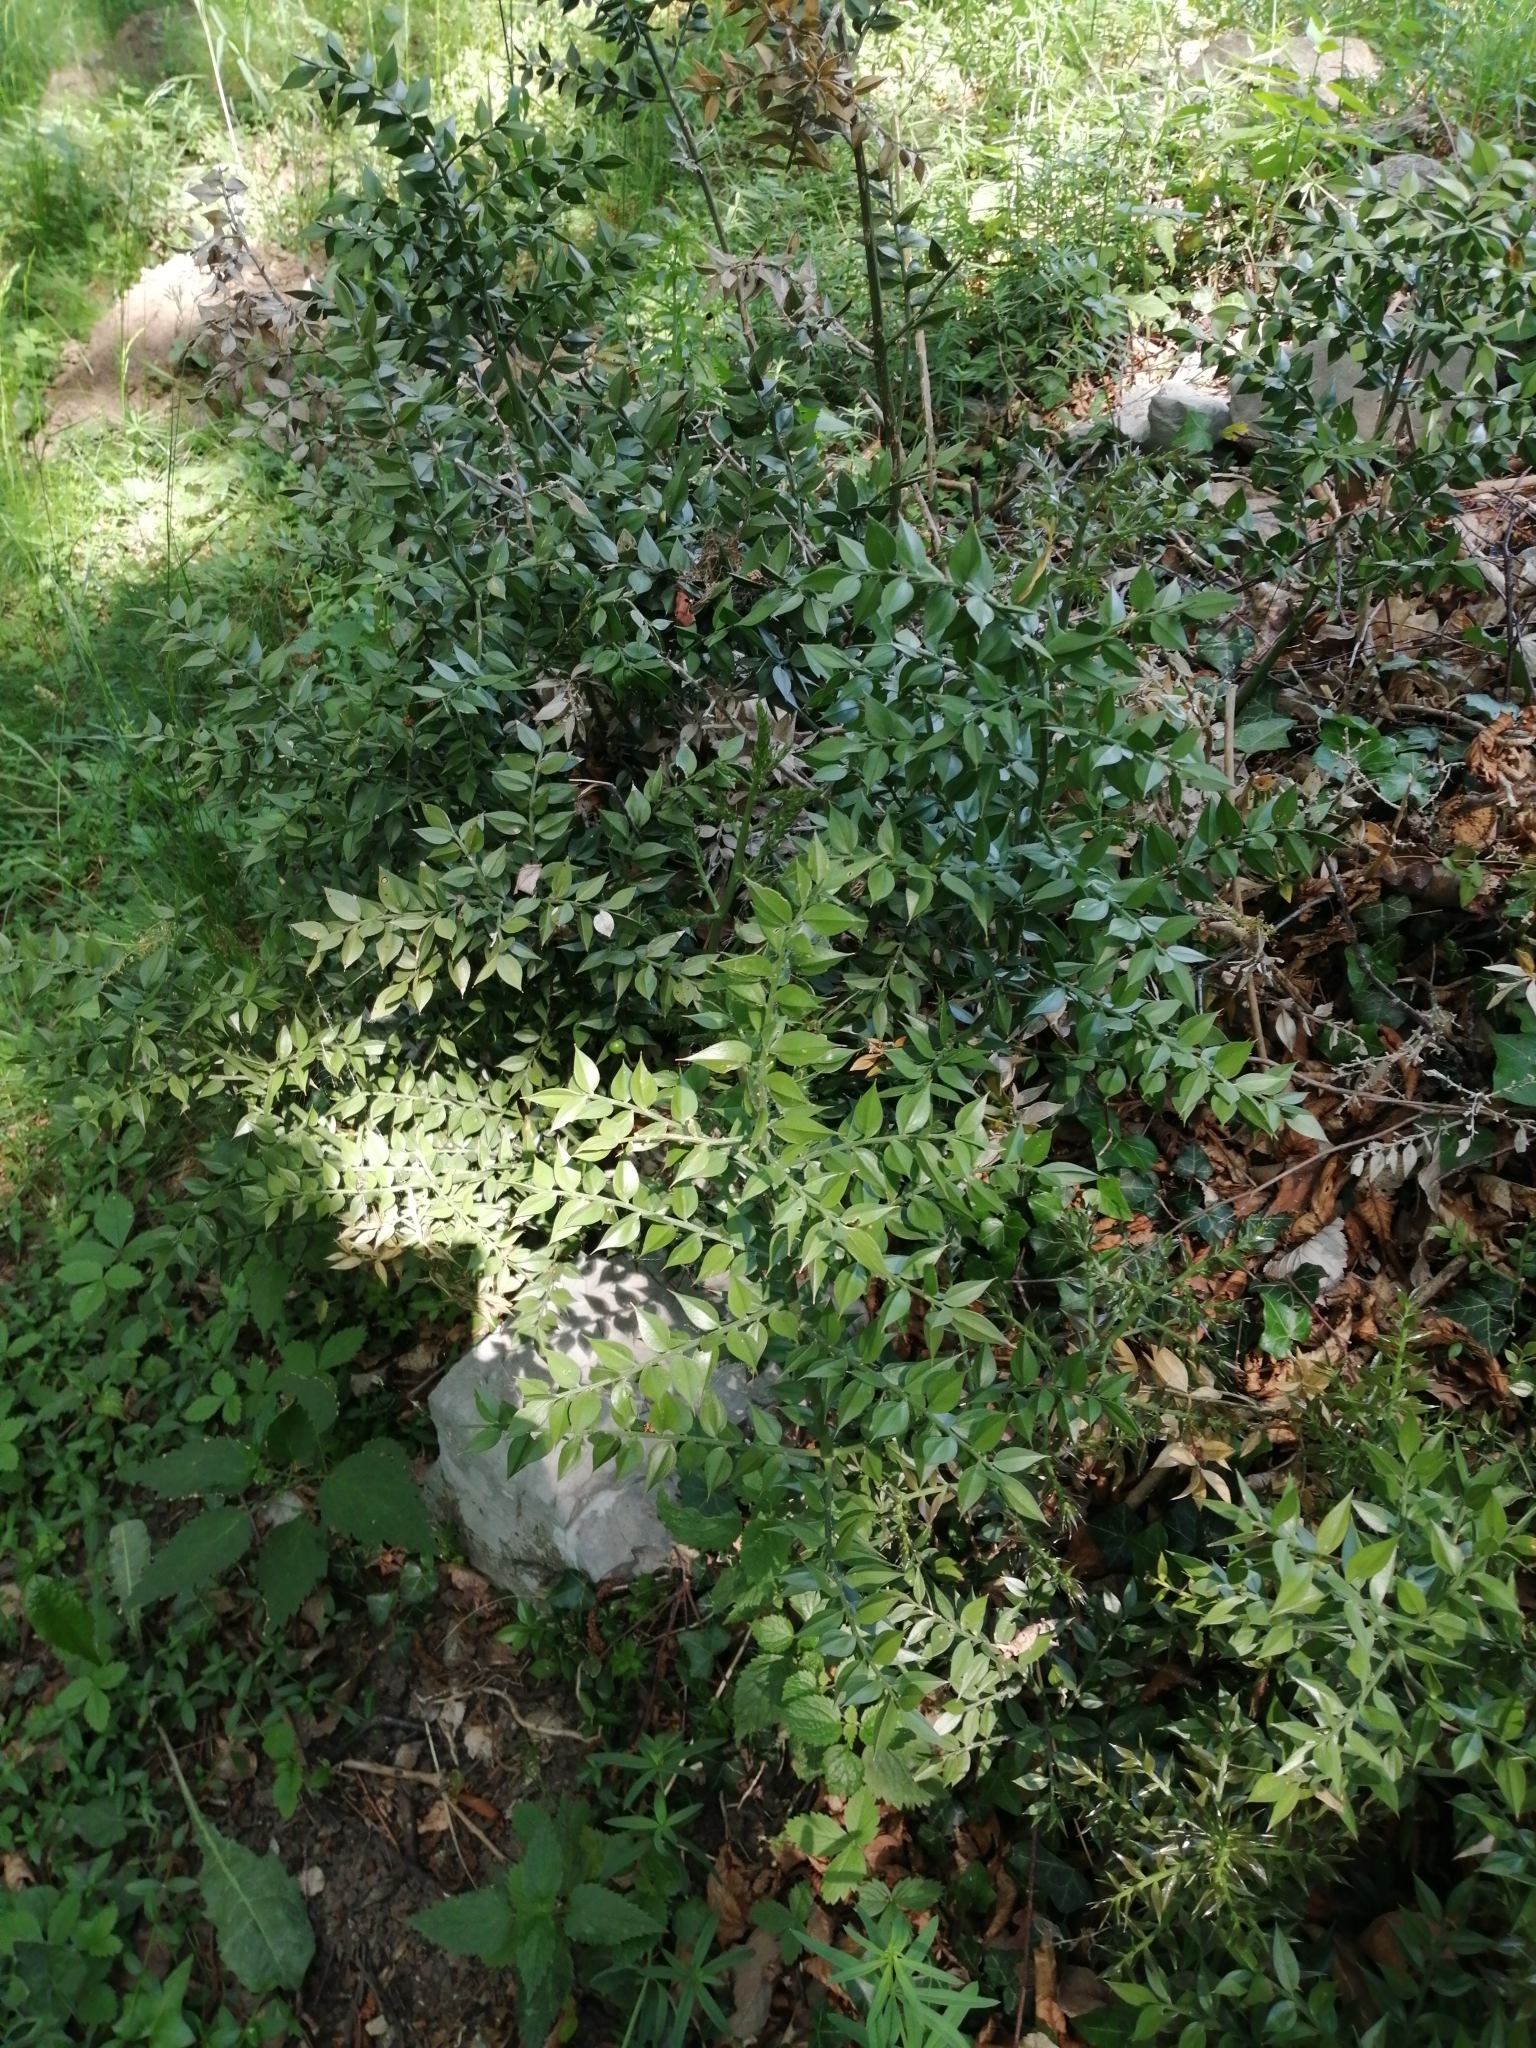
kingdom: Plantae
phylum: Tracheophyta
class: Liliopsida
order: Asparagales
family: Asparagaceae
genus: Ruscus
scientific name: Ruscus aculeatus
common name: Butcher's-broom
